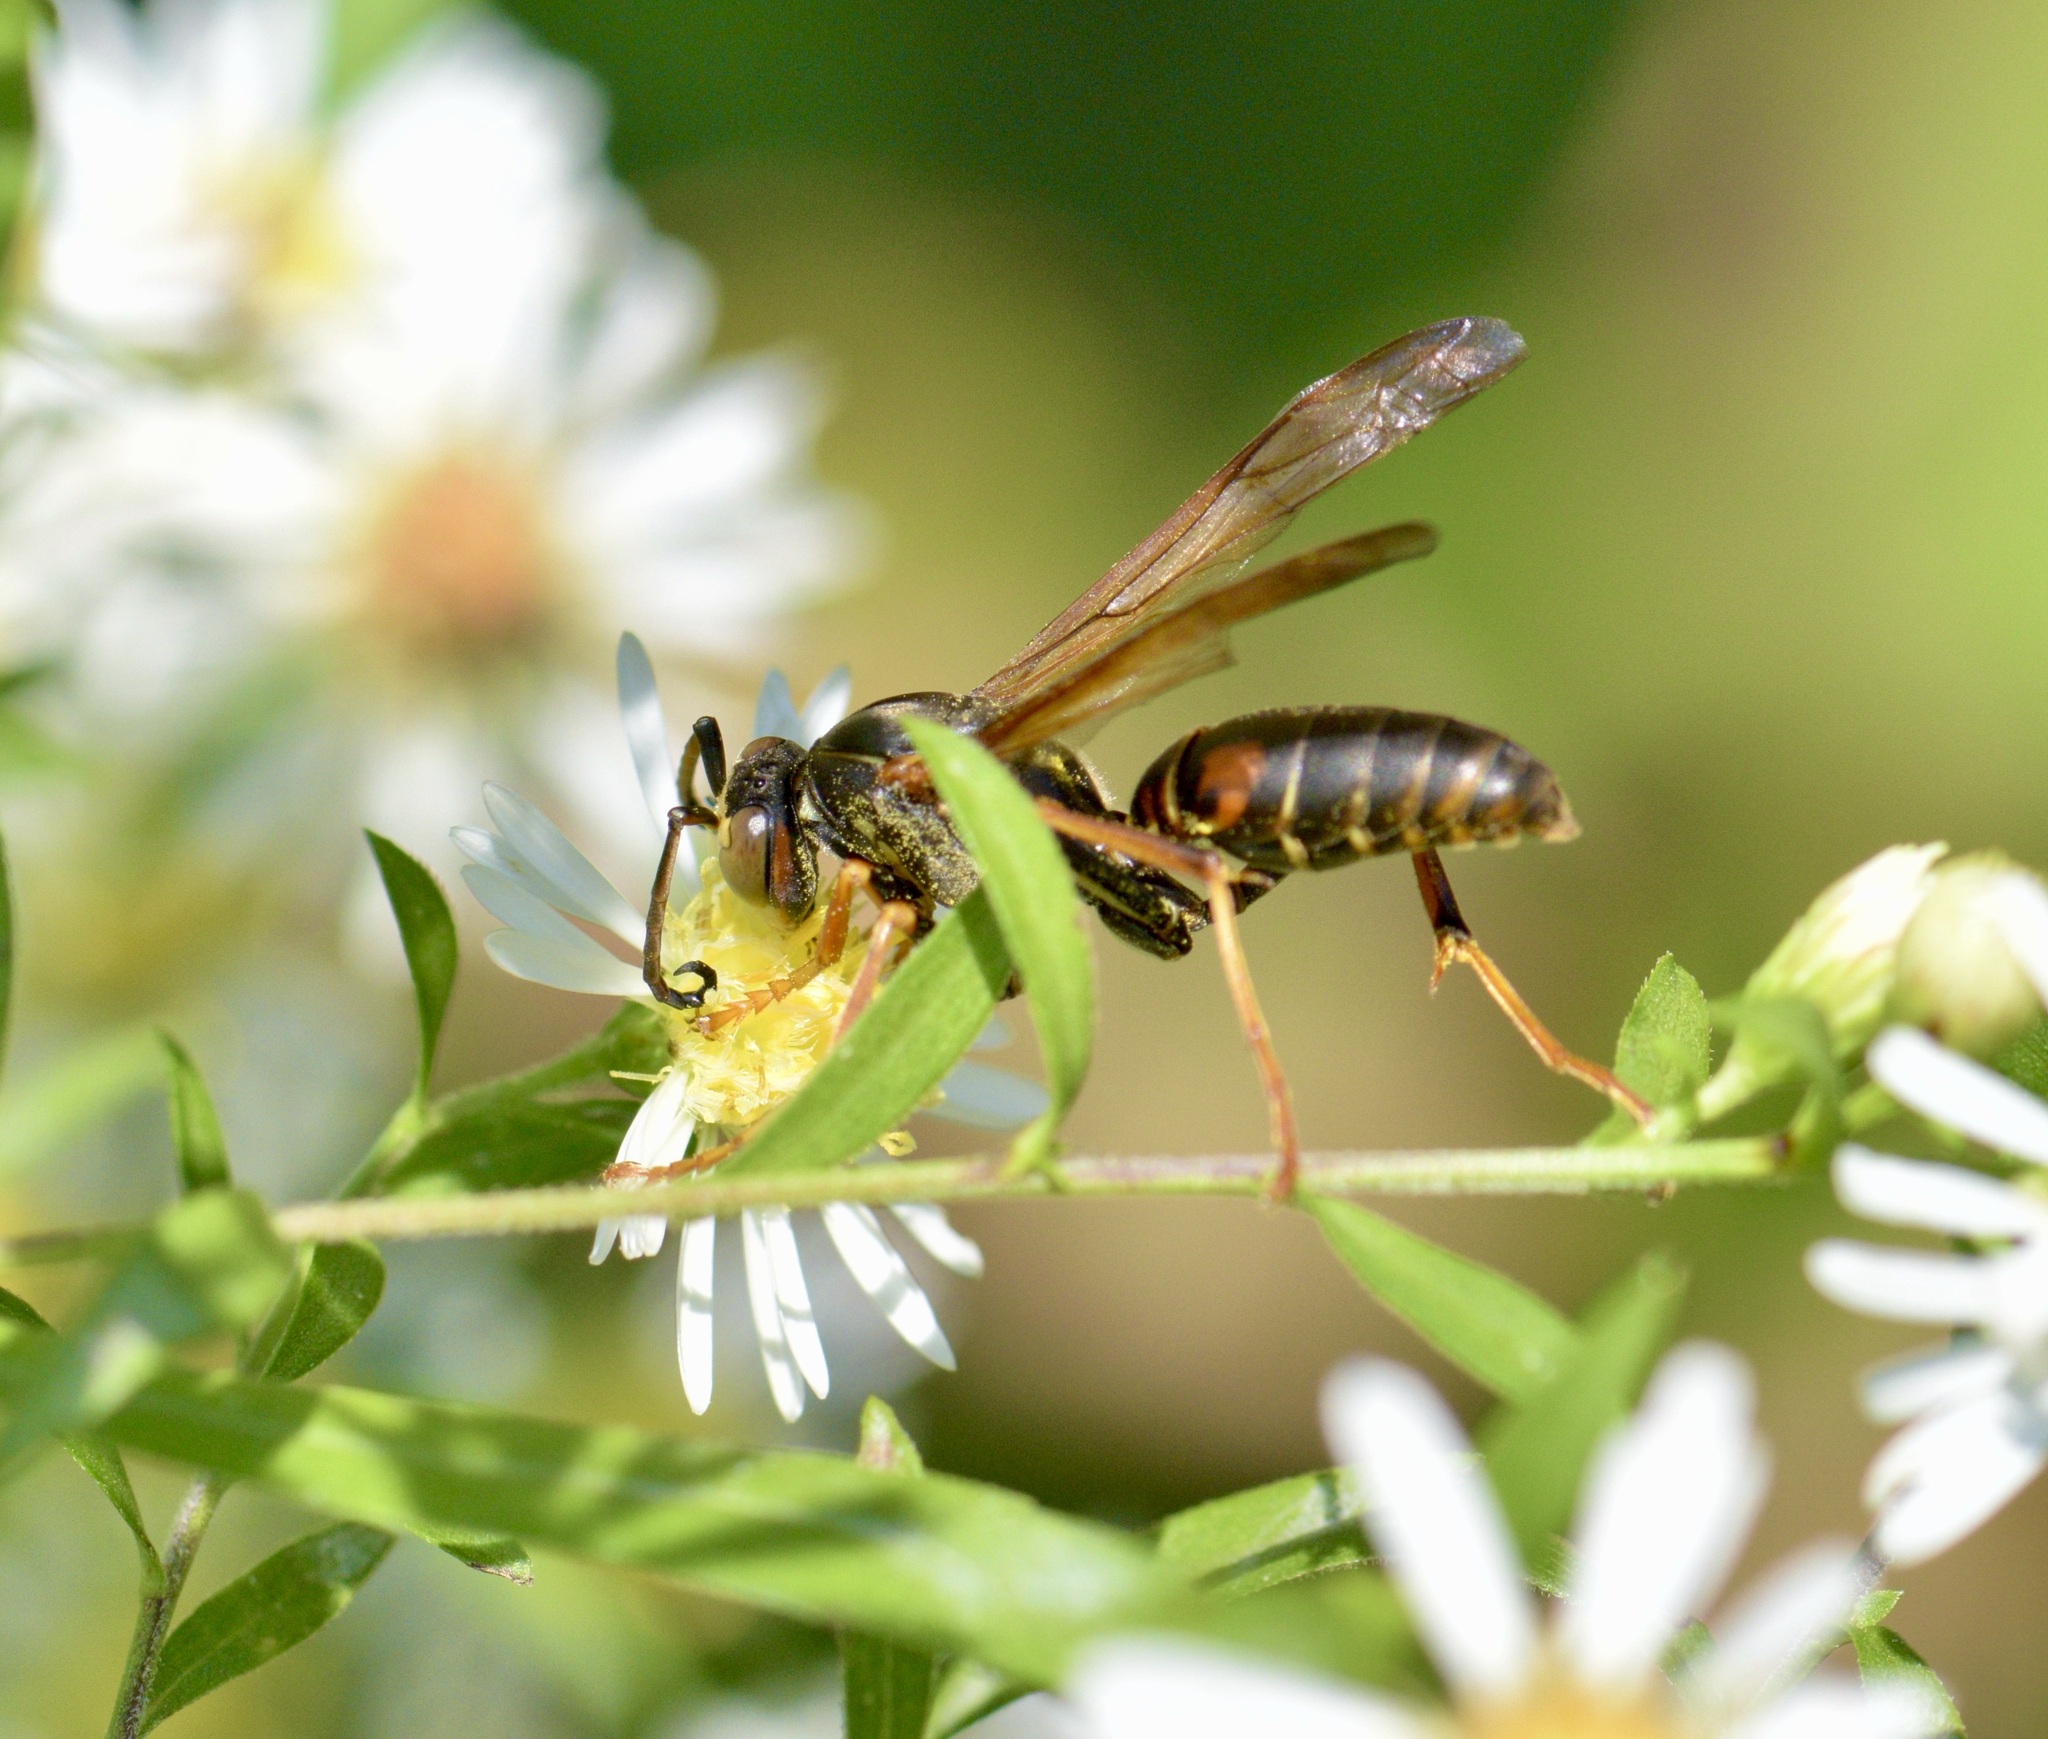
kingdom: Animalia
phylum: Arthropoda
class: Insecta
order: Hymenoptera
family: Eumenidae
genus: Polistes
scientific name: Polistes fuscatus
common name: Dark paper wasp
